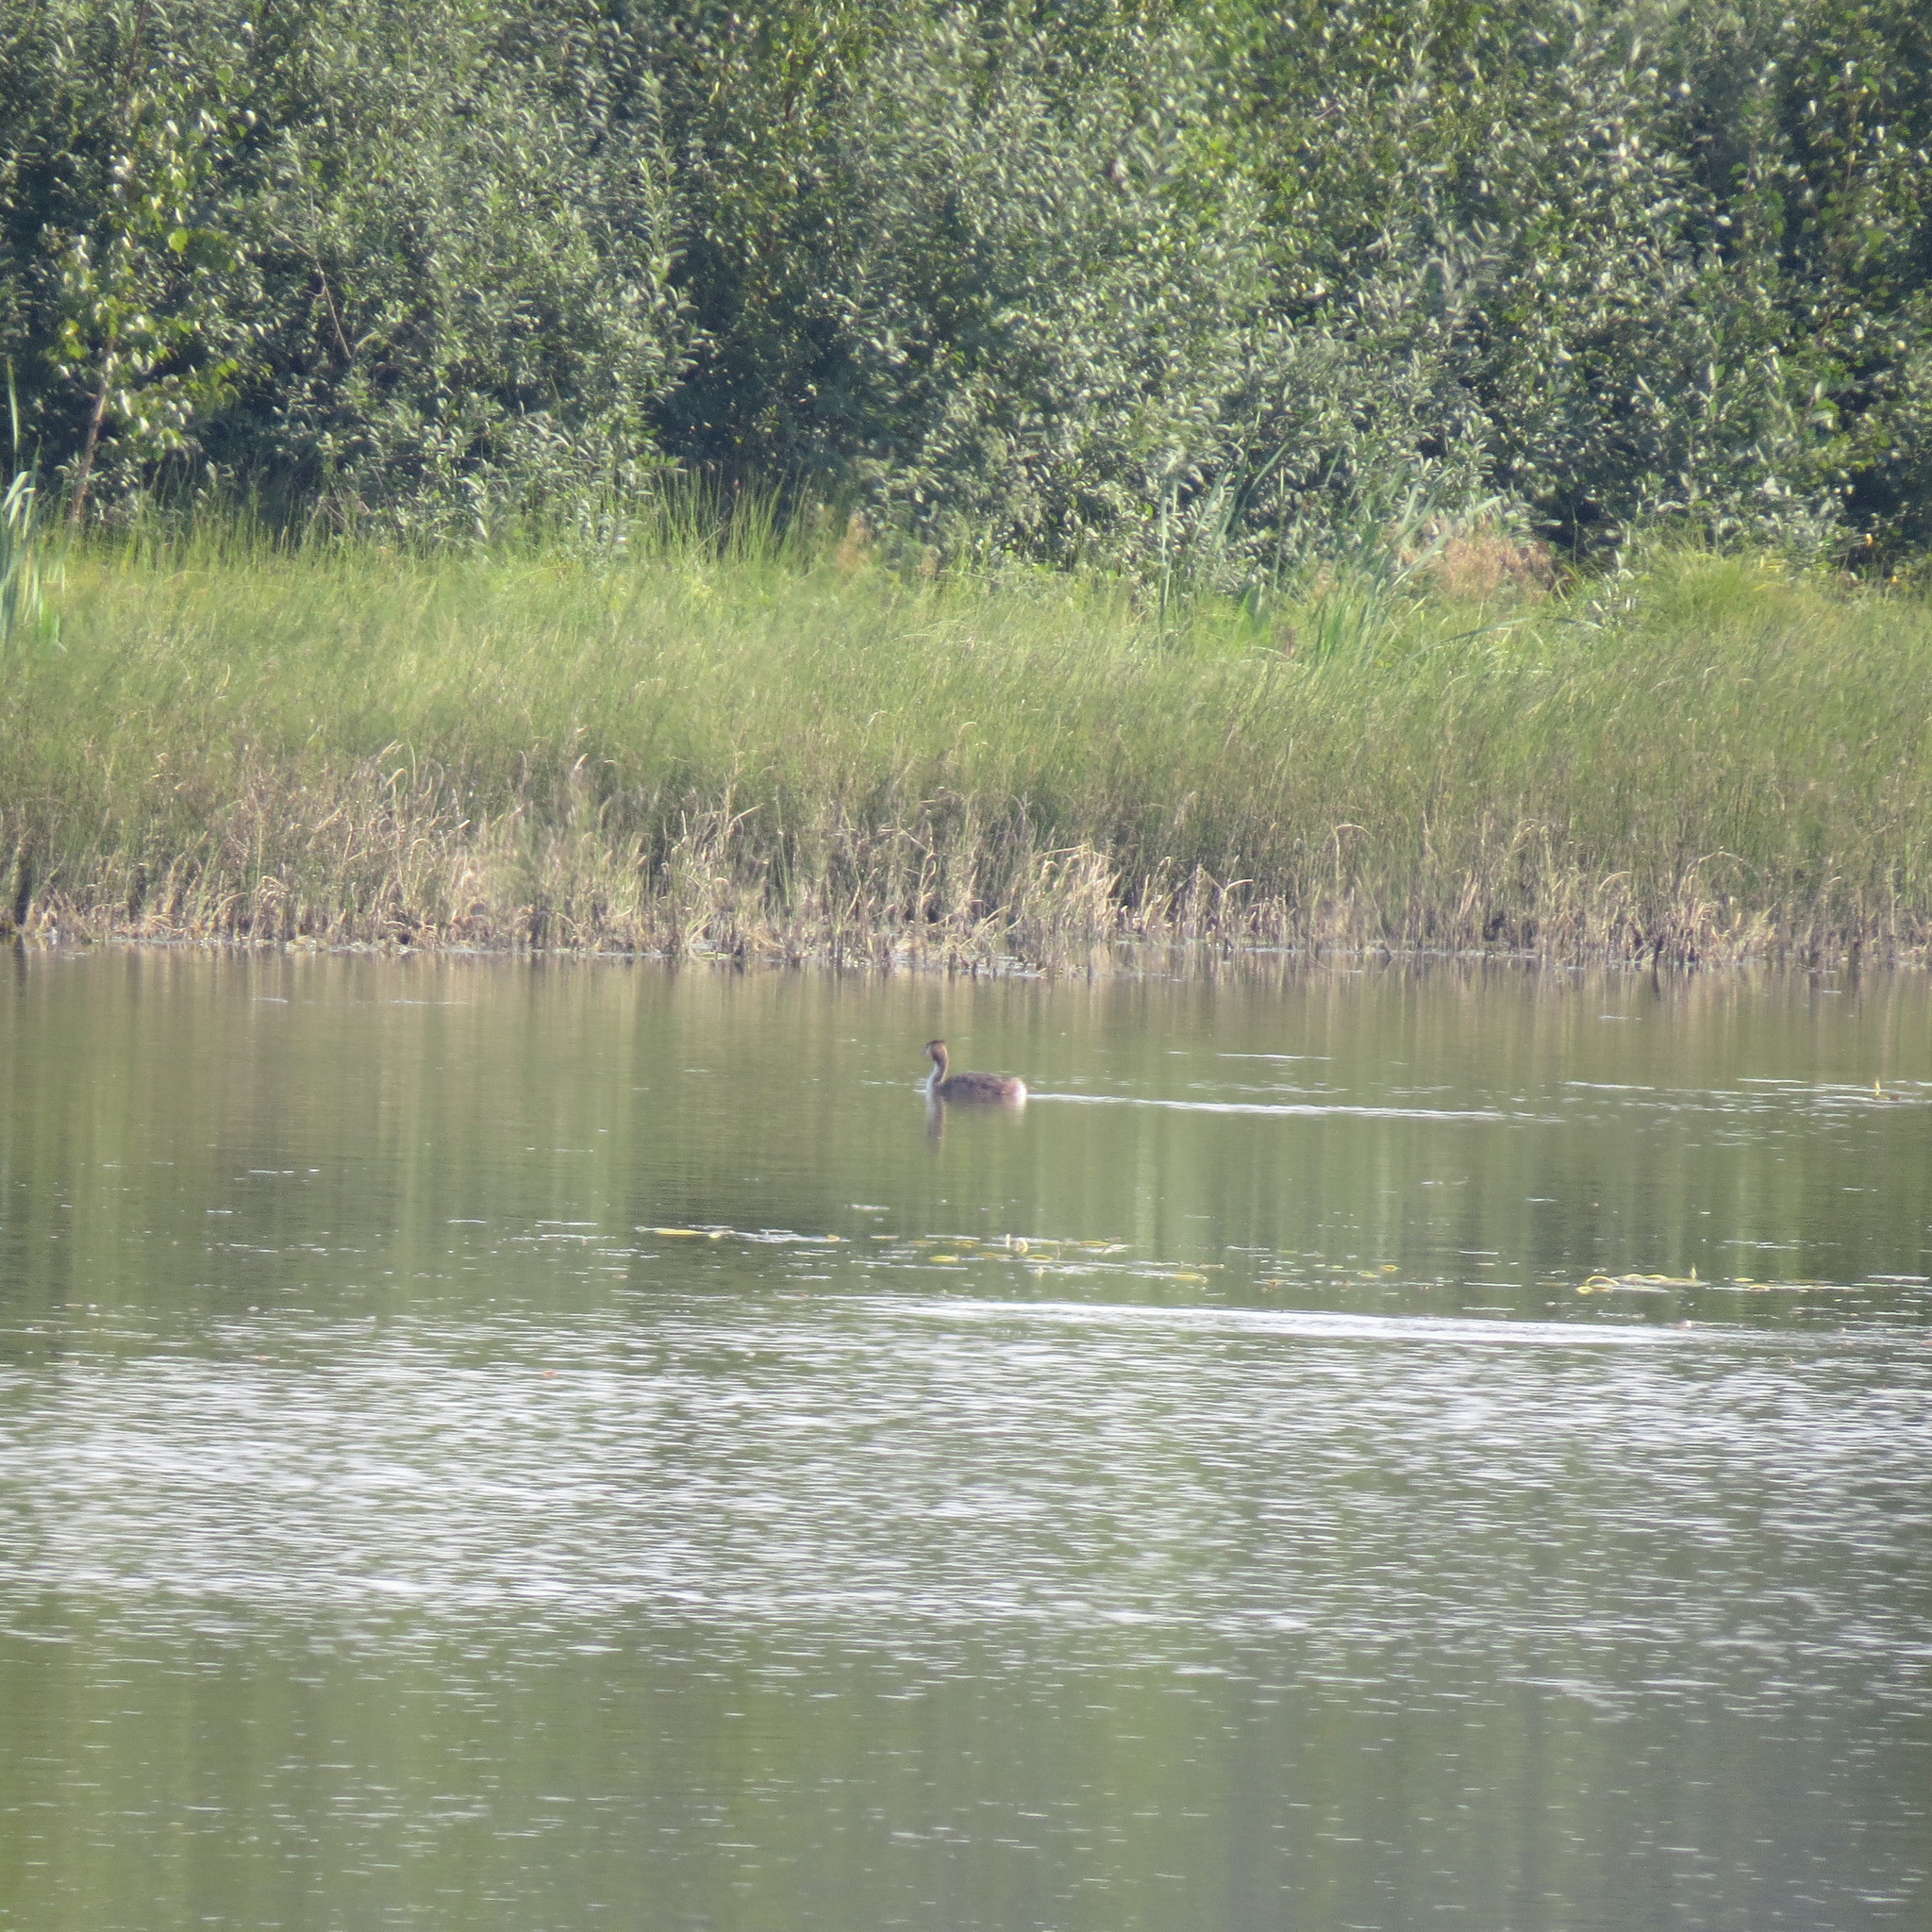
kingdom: Animalia
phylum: Chordata
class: Aves
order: Podicipediformes
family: Podicipedidae
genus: Podiceps
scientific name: Podiceps cristatus
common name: Great crested grebe
